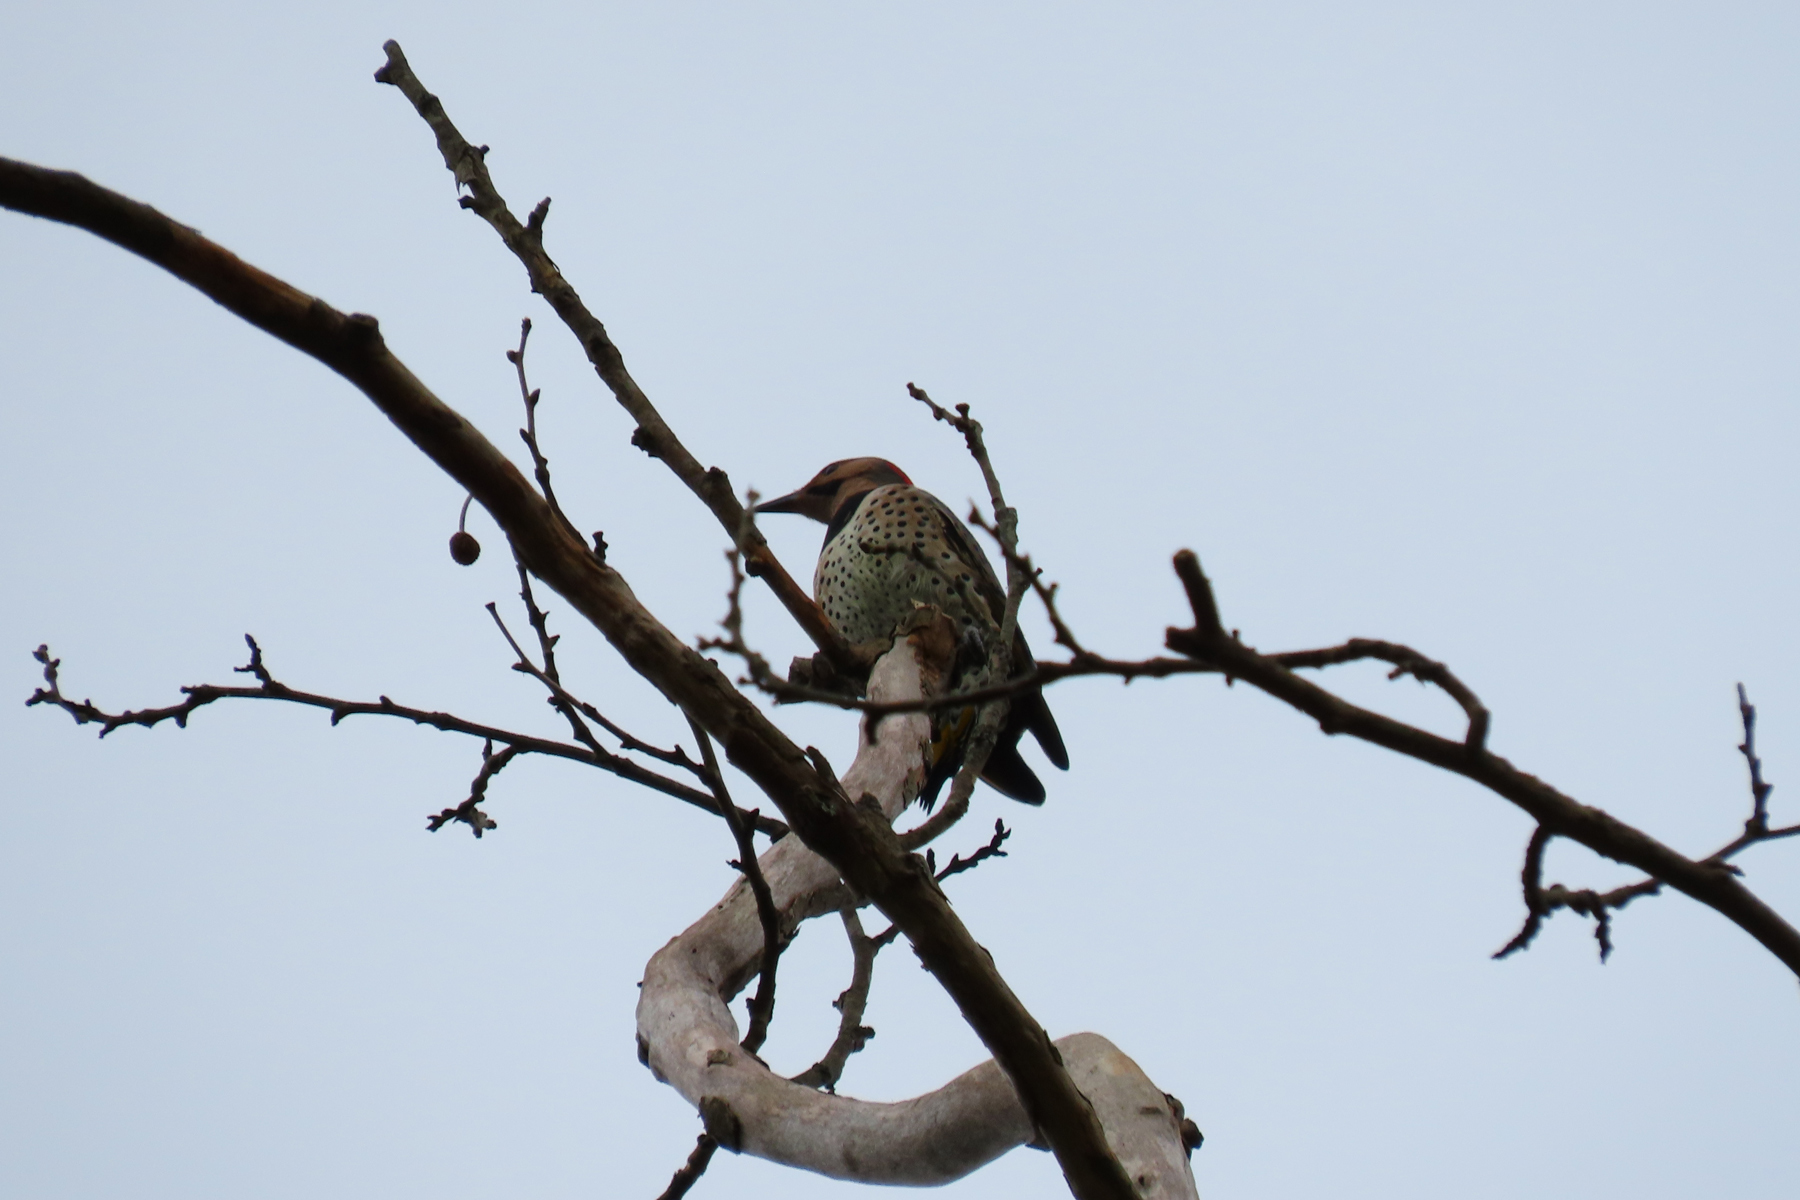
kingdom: Animalia
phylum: Chordata
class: Aves
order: Piciformes
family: Picidae
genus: Colaptes
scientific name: Colaptes auratus
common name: Northern flicker
